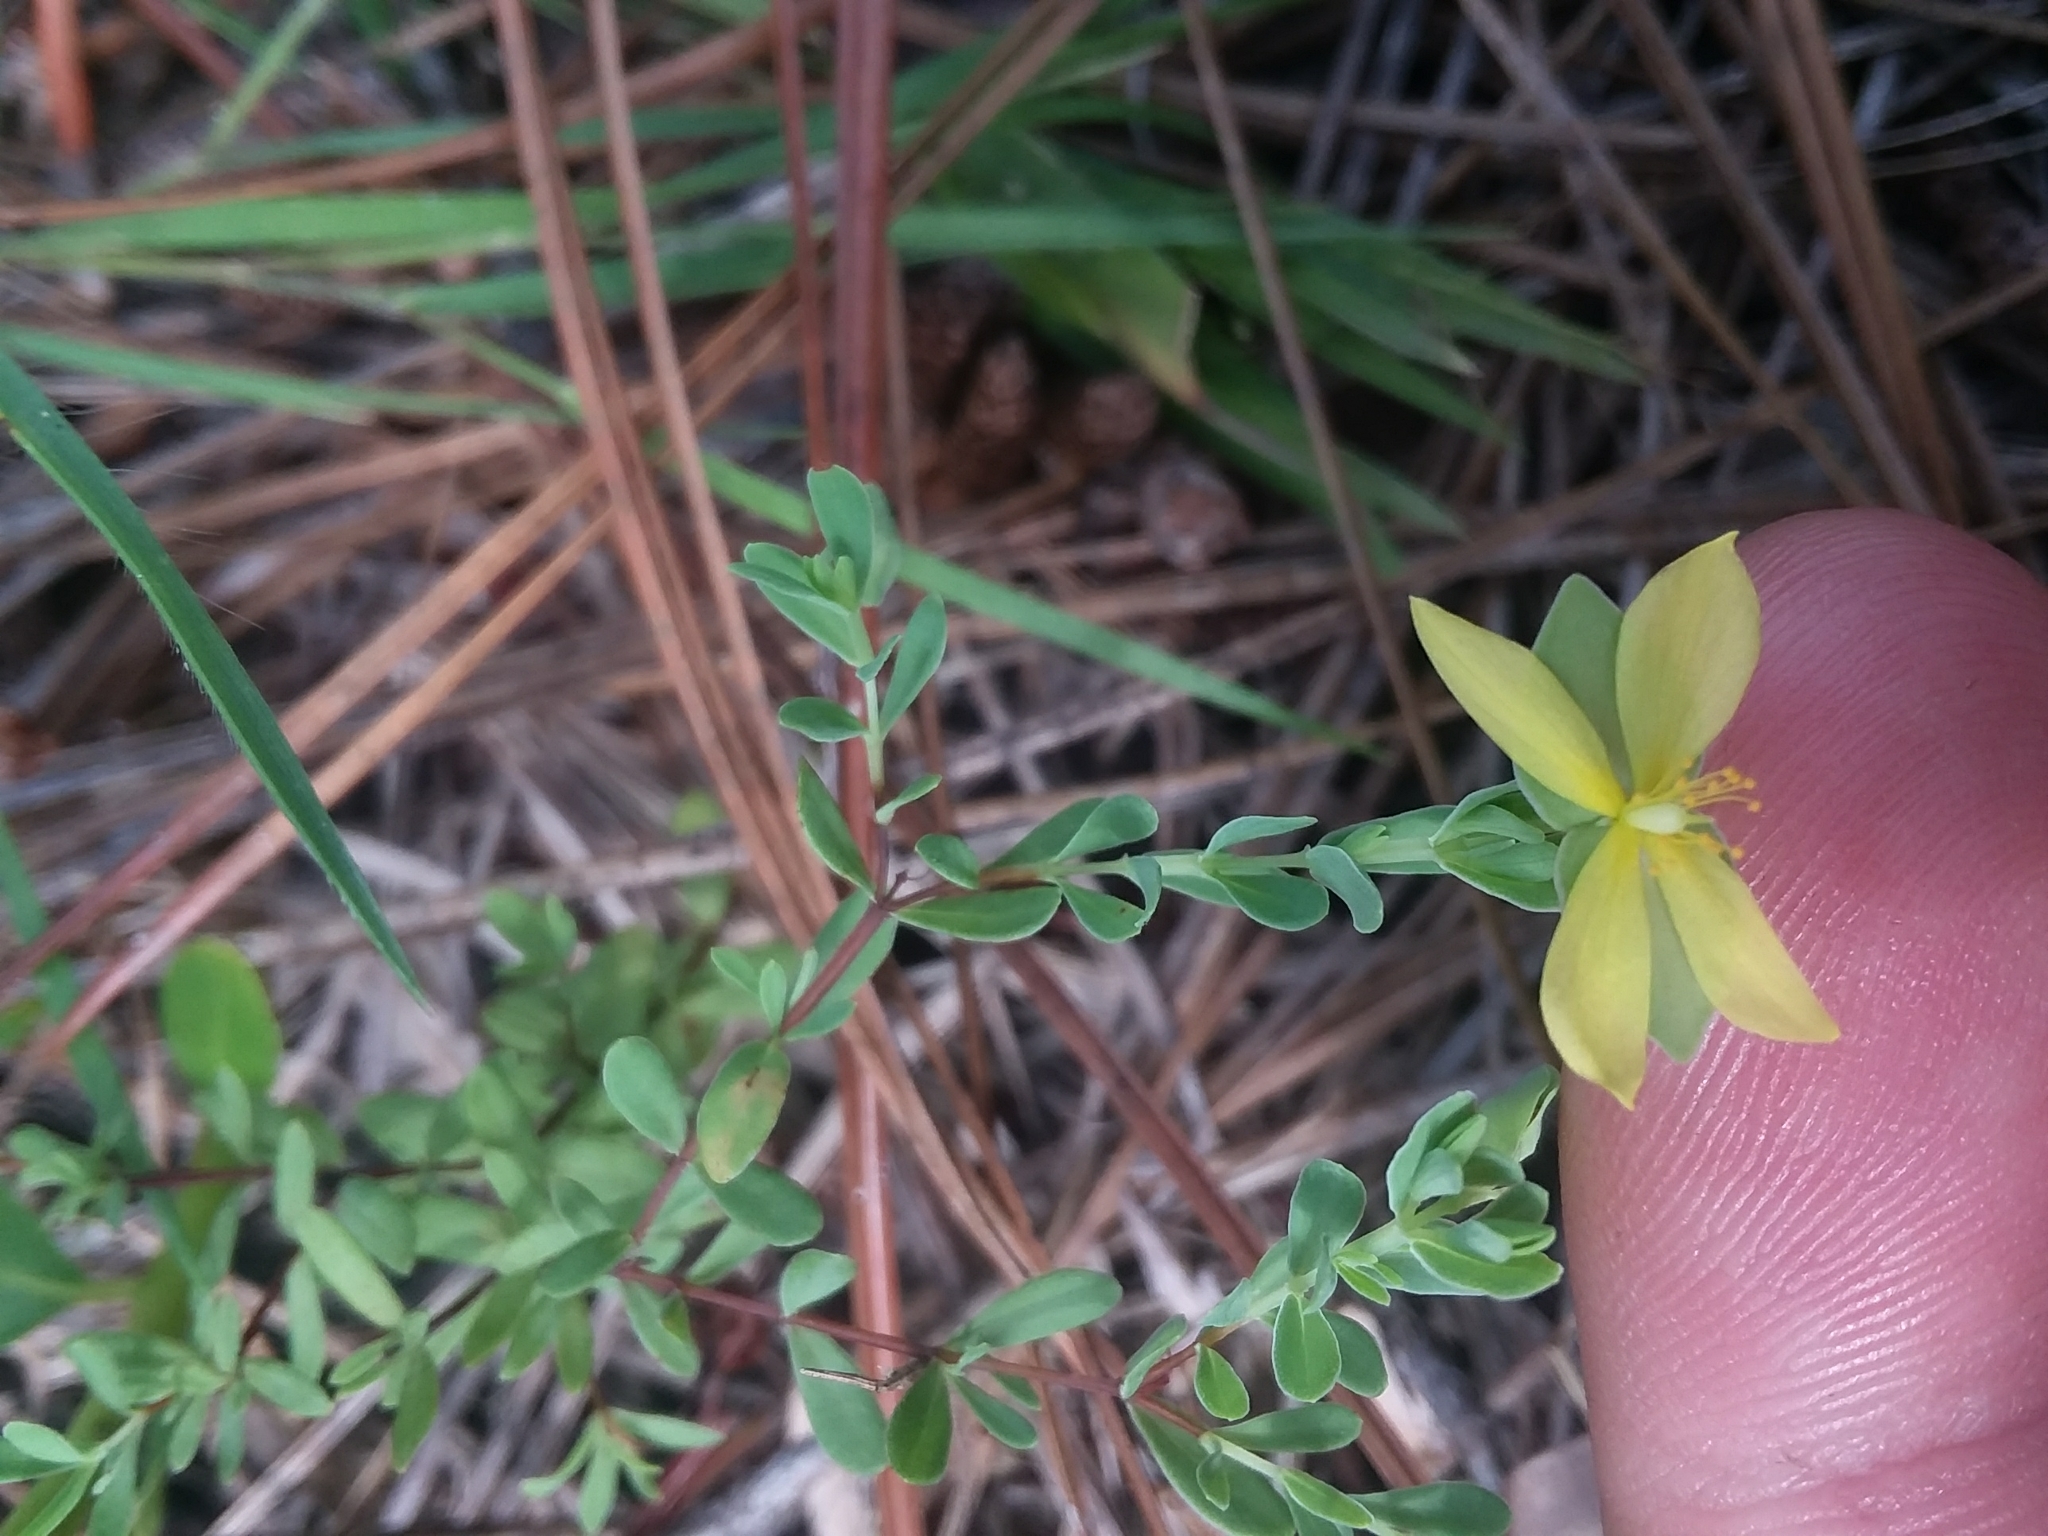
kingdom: Plantae
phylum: Tracheophyta
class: Magnoliopsida
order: Malpighiales
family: Hypericaceae
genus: Hypericum
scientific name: Hypericum suffruticosum
